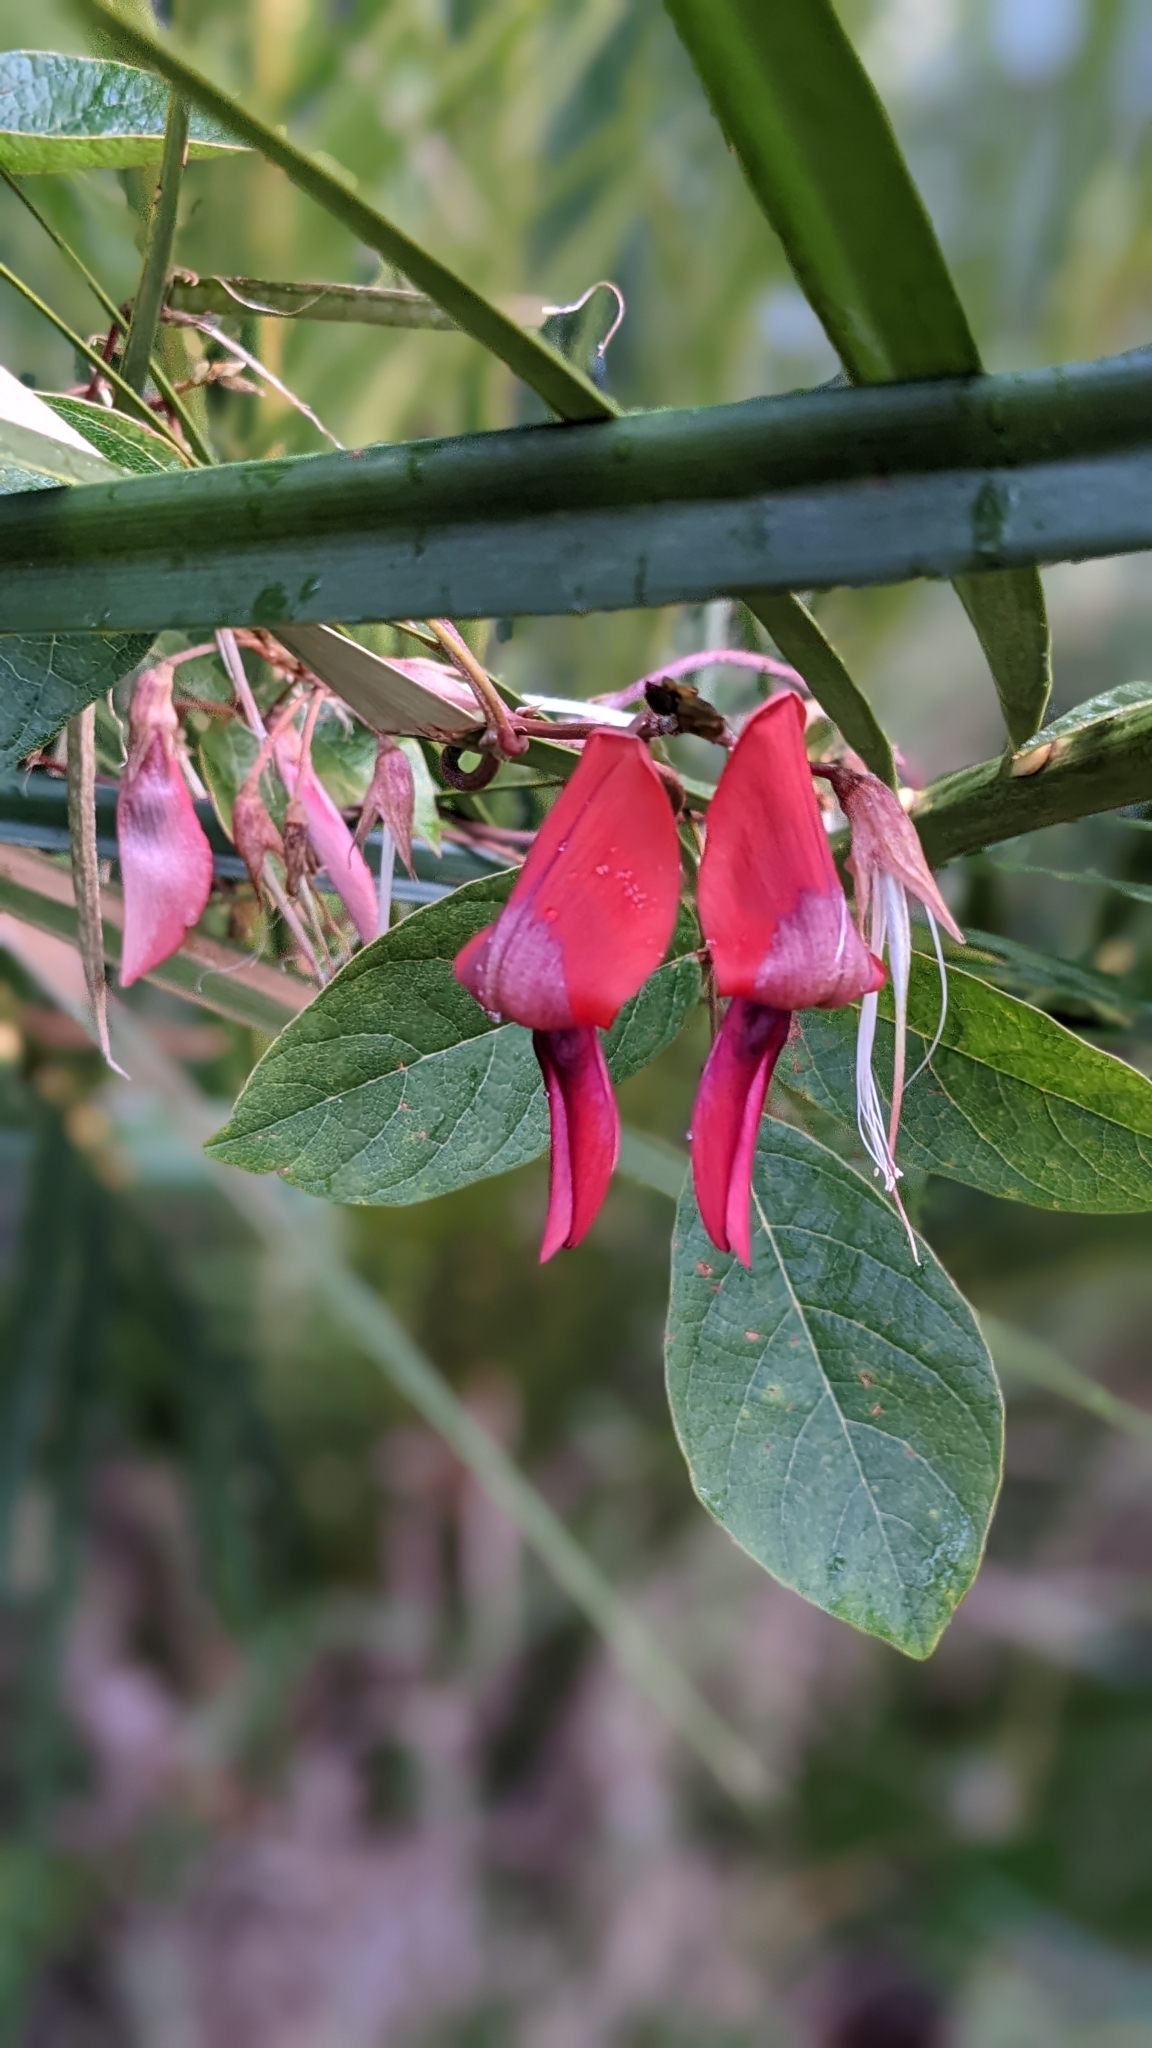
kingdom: Plantae
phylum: Tracheophyta
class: Magnoliopsida
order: Fabales
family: Fabaceae
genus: Kennedia
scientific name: Kennedia rubicunda
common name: Red kennedy-pea
